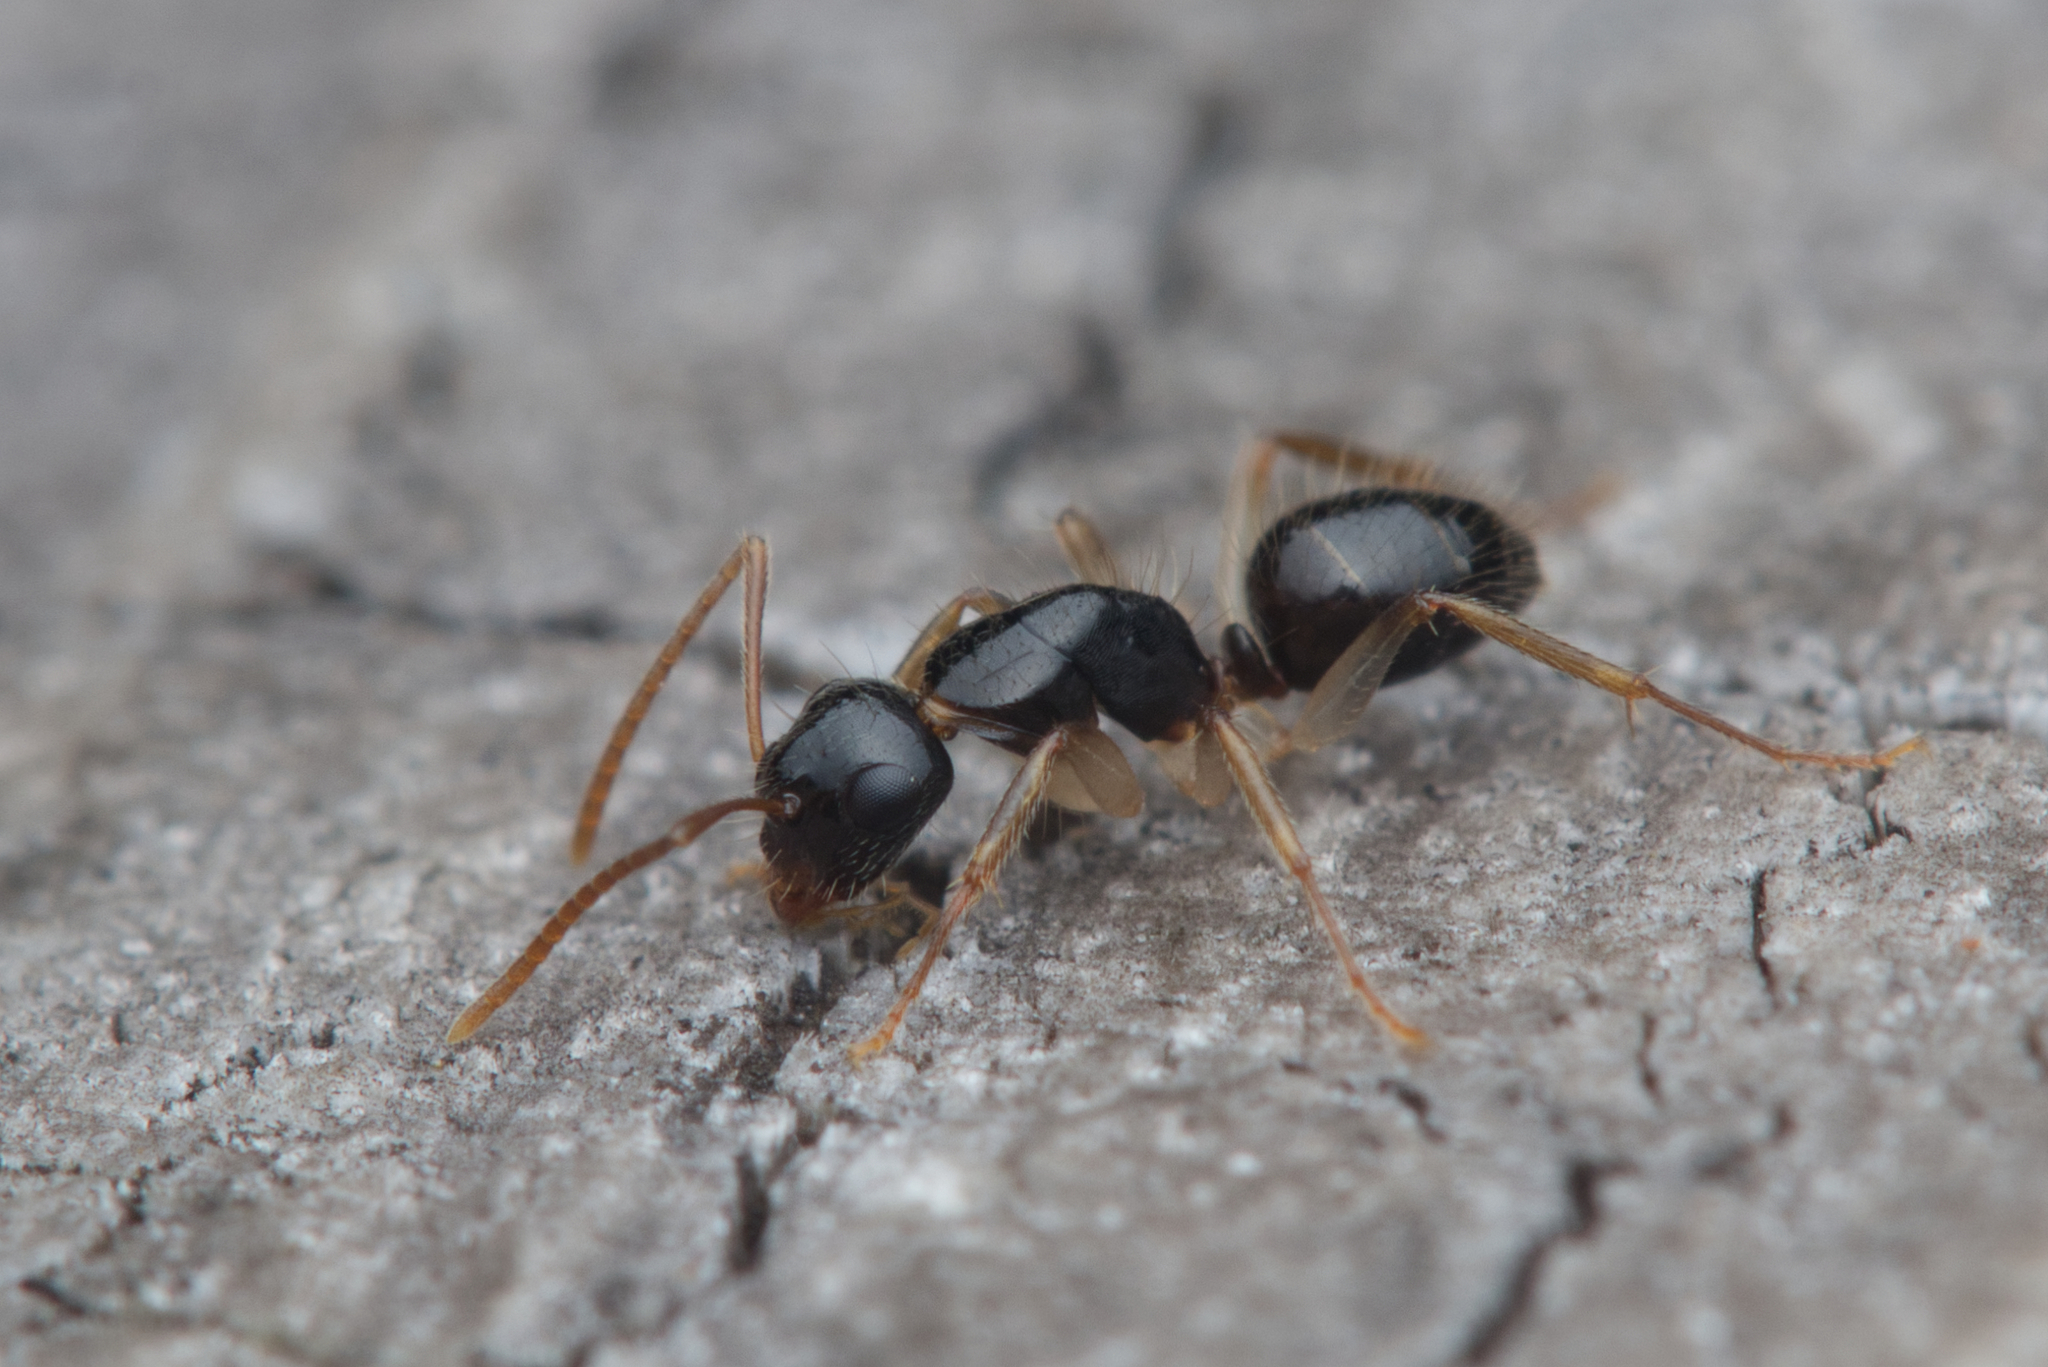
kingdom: Animalia
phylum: Arthropoda
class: Insecta
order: Hymenoptera
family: Formicidae
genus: Camponotus
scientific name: Camponotus lownei
